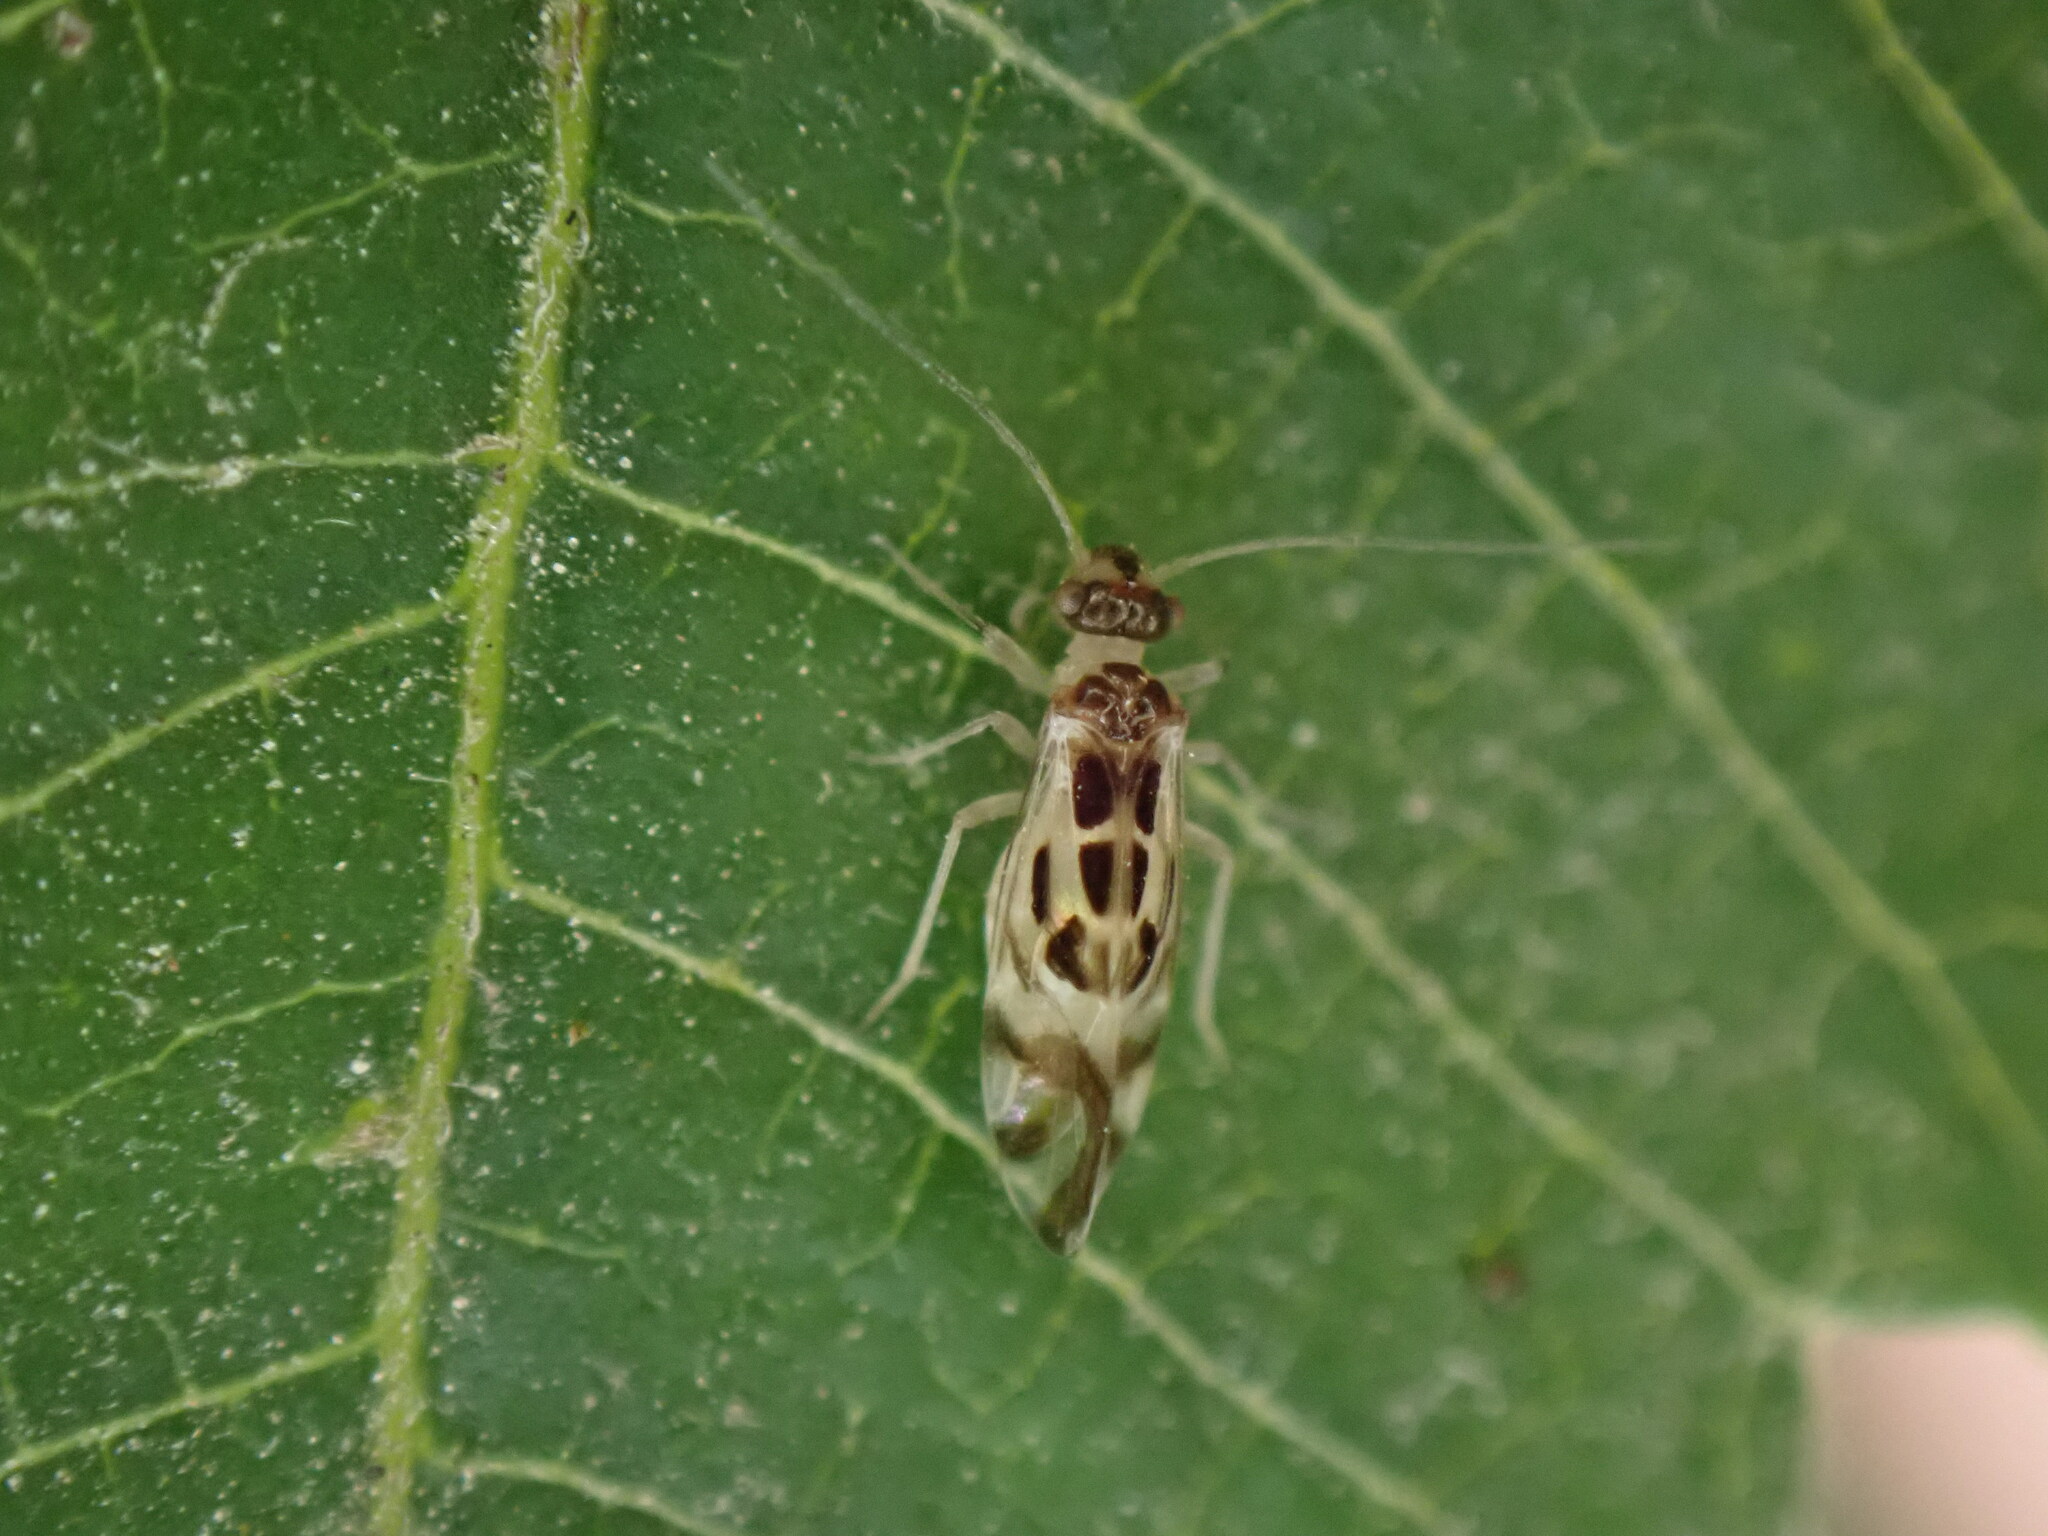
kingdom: Animalia
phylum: Arthropoda
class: Insecta
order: Psocodea
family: Stenopsocidae
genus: Graphopsocus
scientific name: Graphopsocus cruciatus
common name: Lizard bark louse
